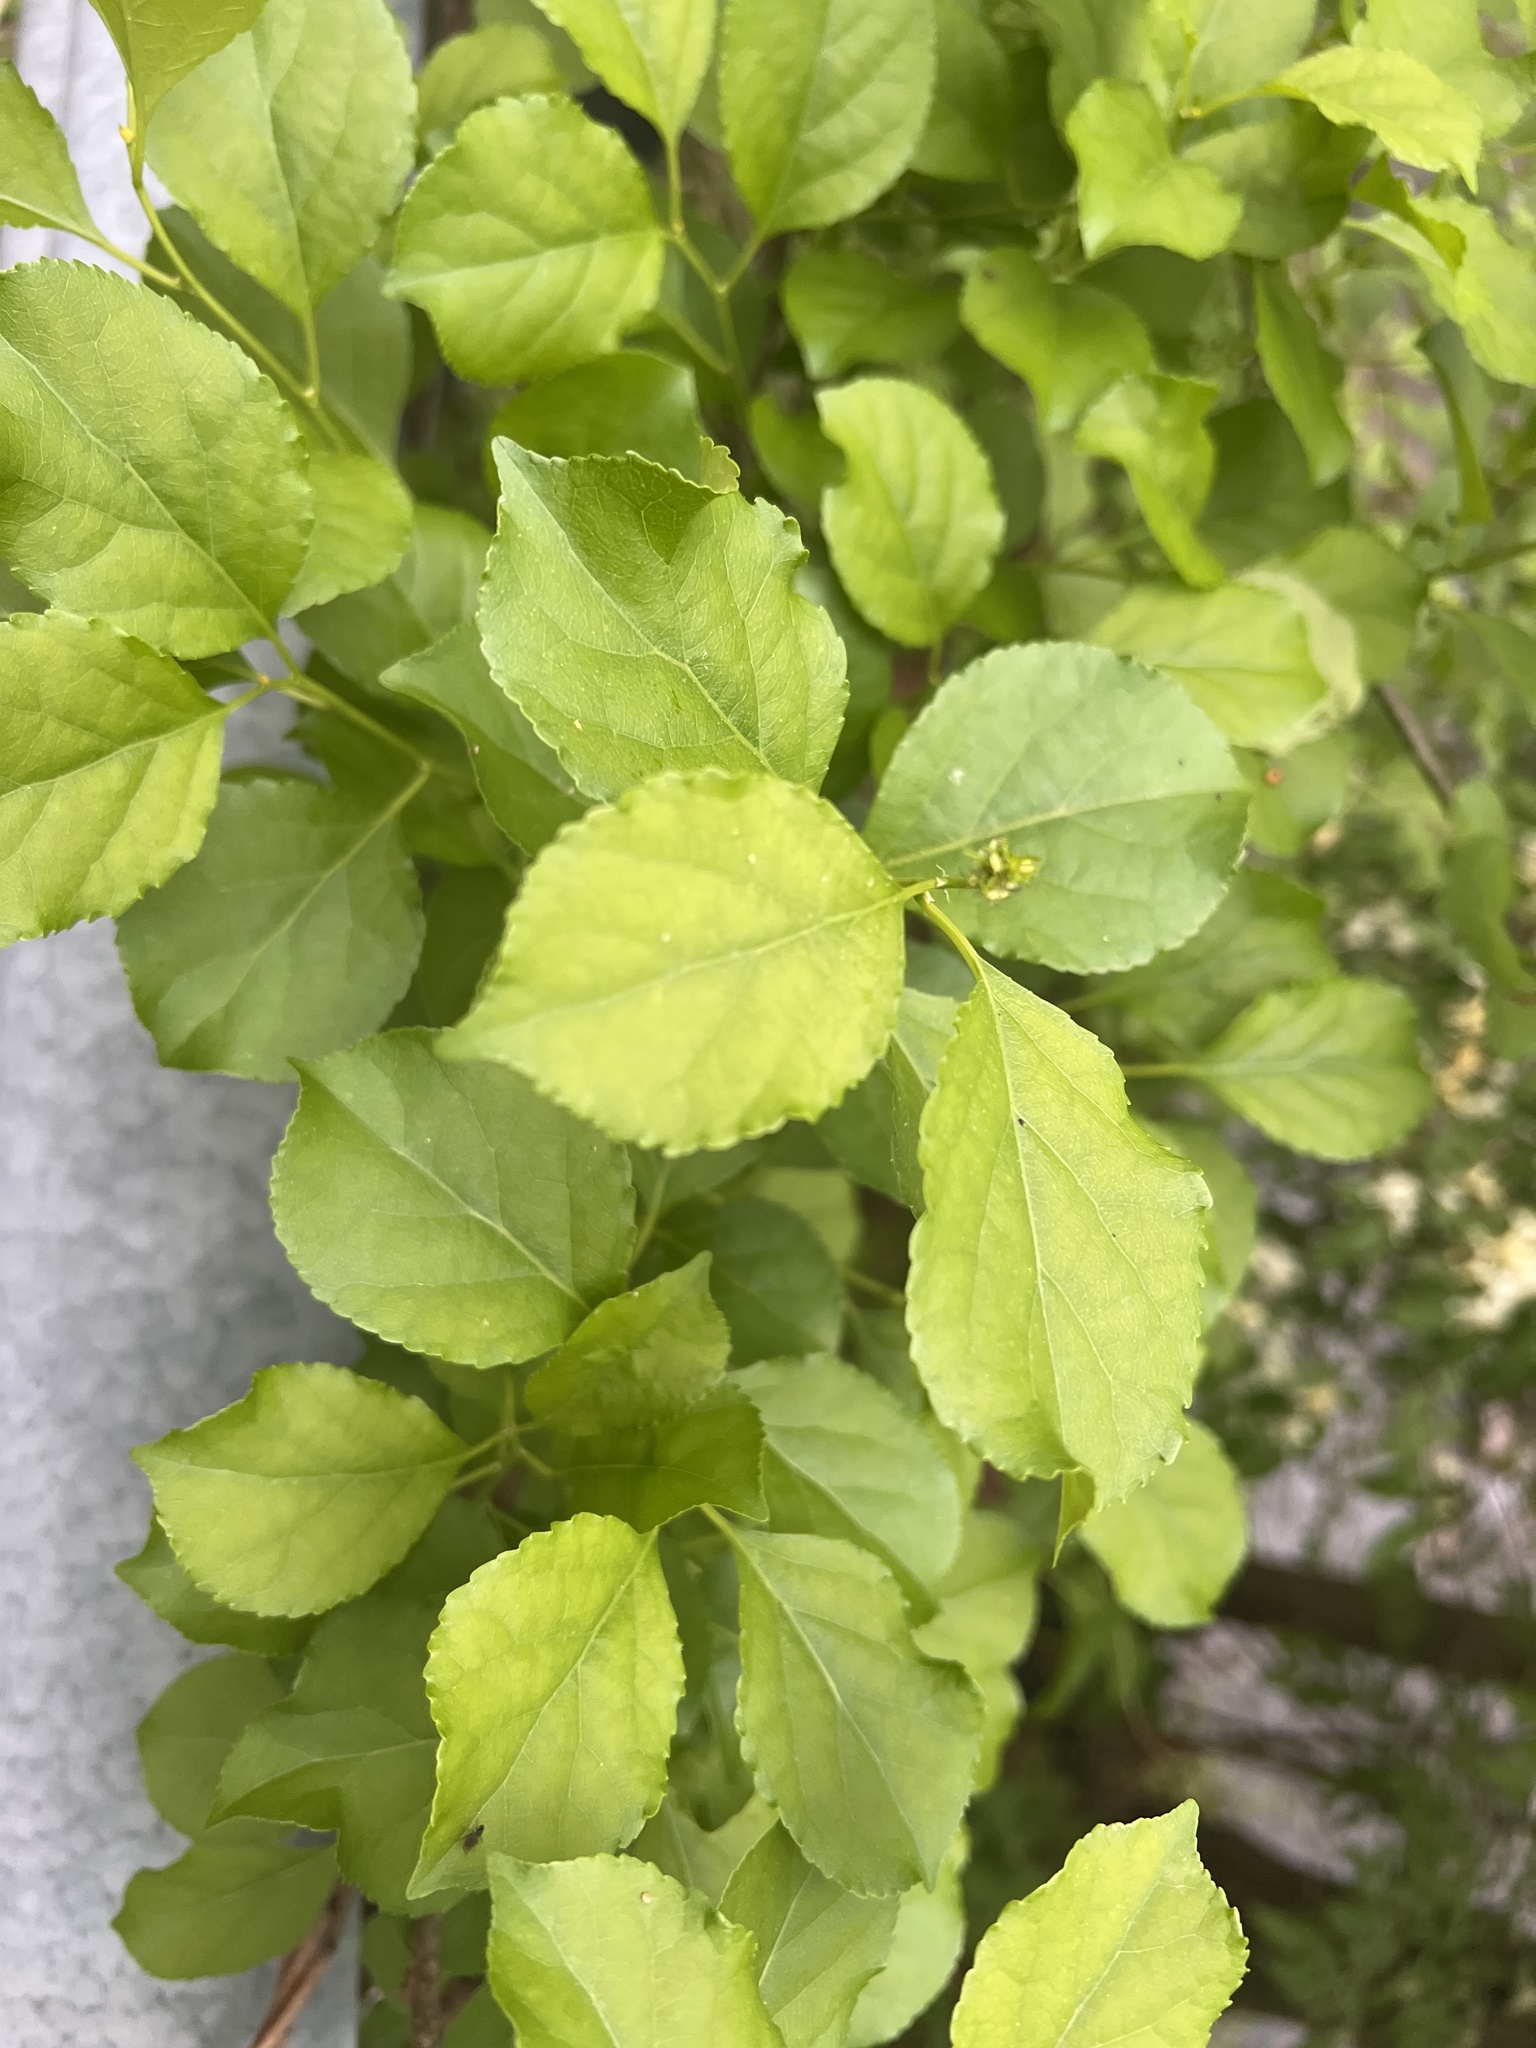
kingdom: Plantae
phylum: Tracheophyta
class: Magnoliopsida
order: Celastrales
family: Celastraceae
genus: Celastrus
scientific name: Celastrus orbiculatus
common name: Oriental bittersweet
